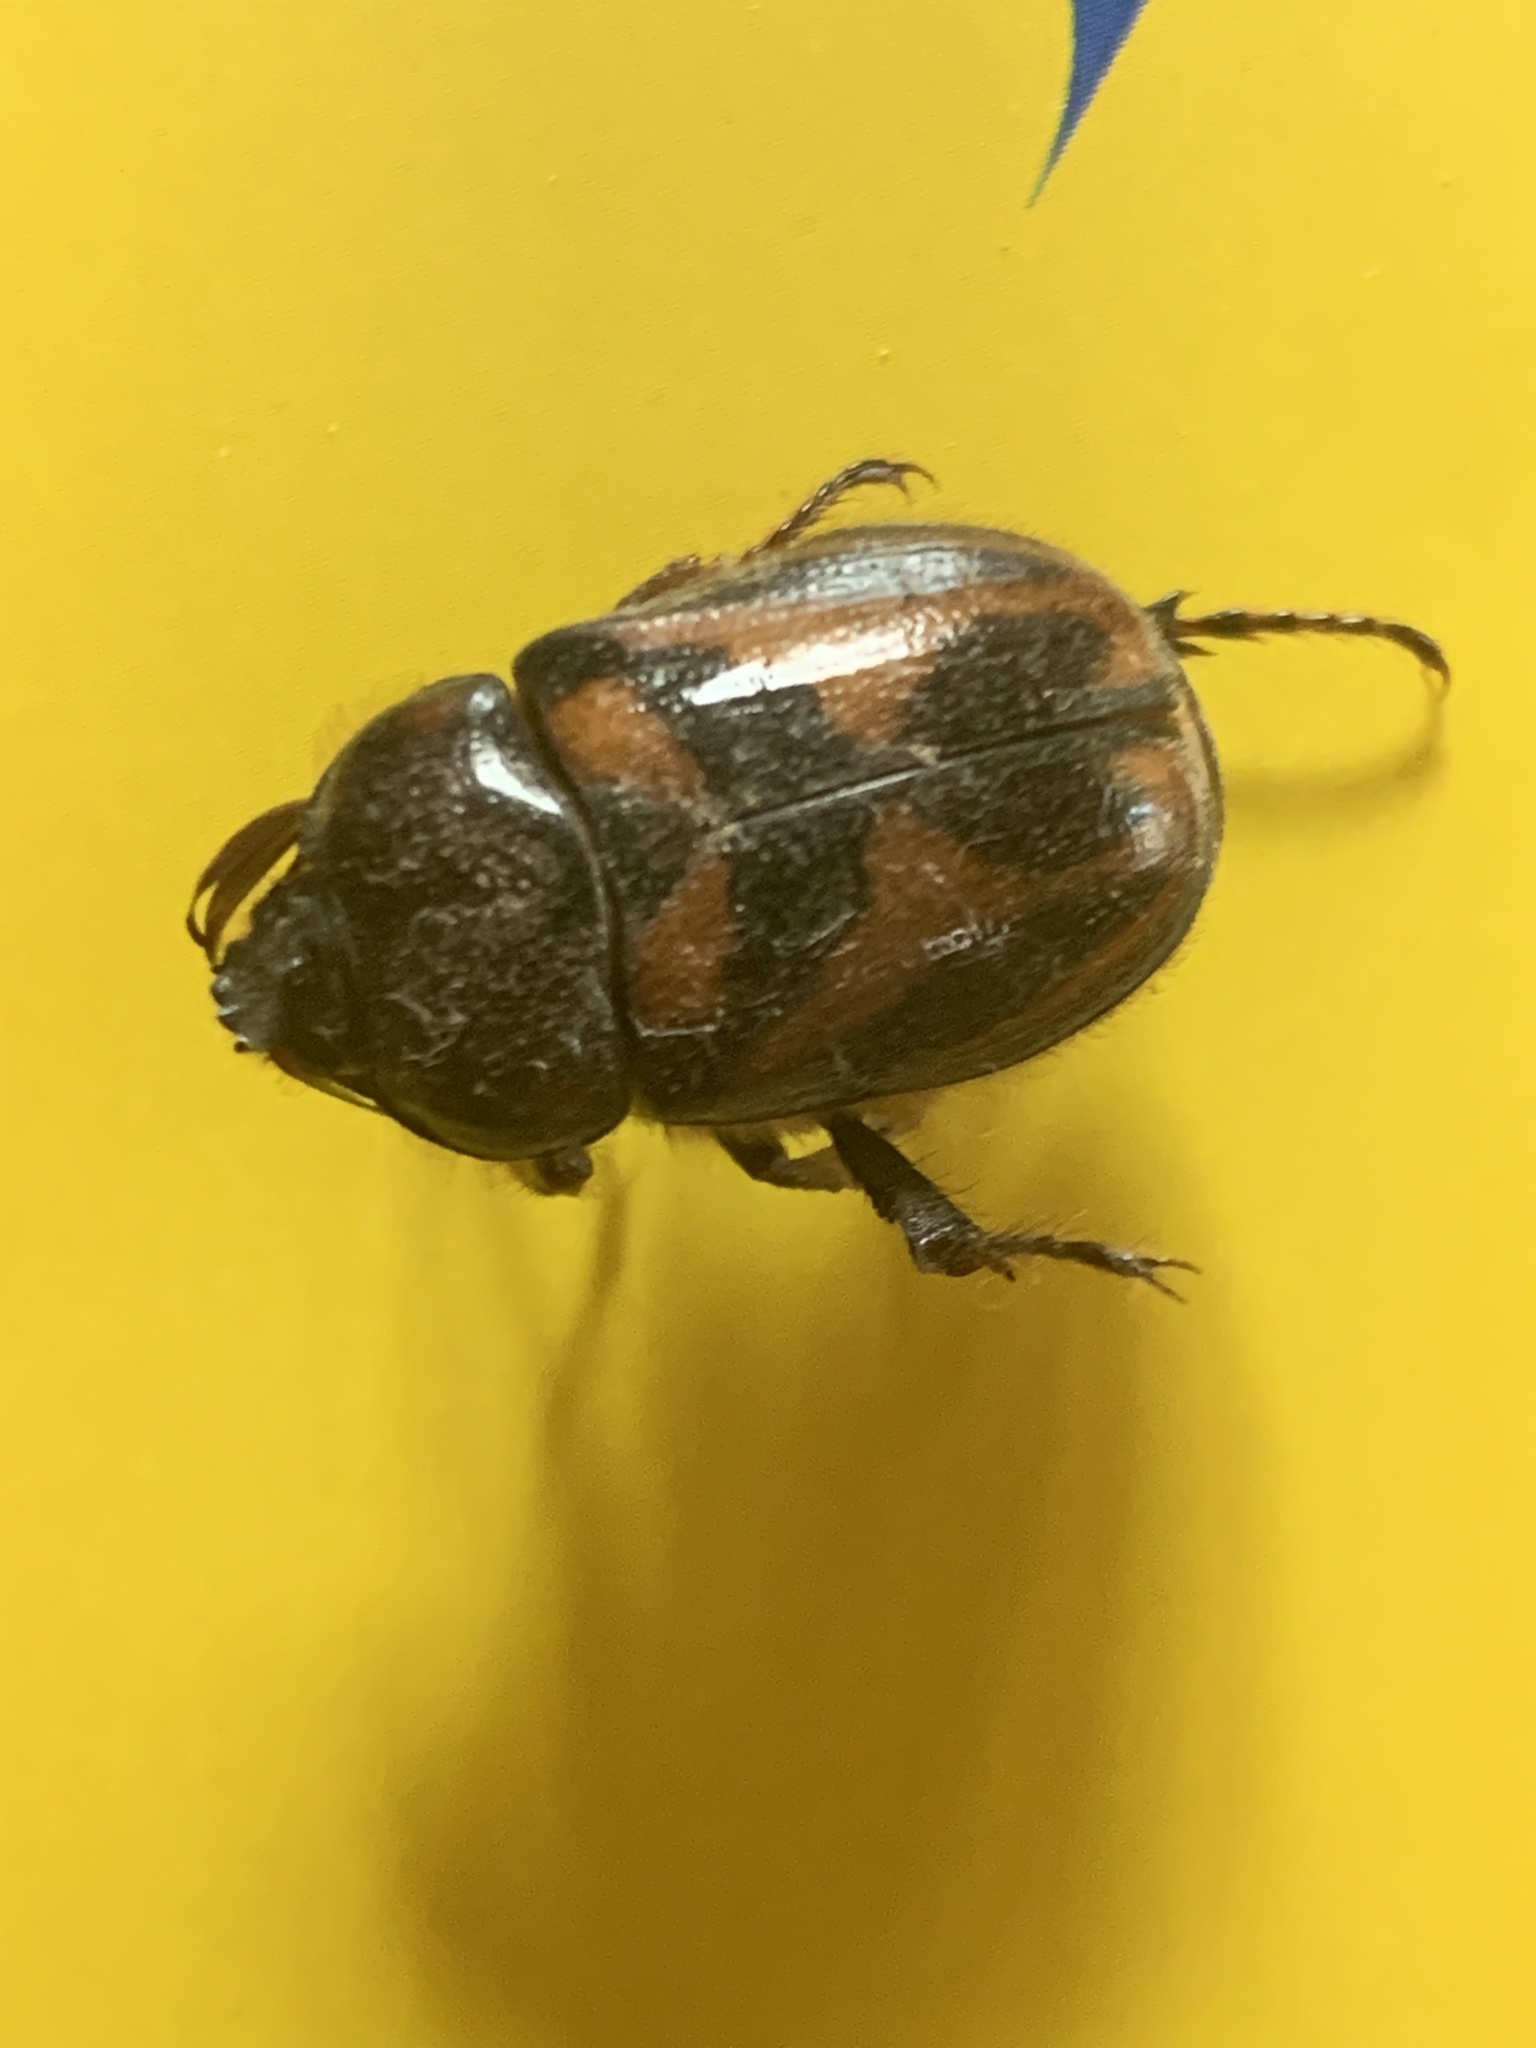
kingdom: Animalia
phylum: Arthropoda
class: Insecta
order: Coleoptera
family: Scarabaeidae
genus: Oryctomorphus
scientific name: Oryctomorphus bimaculatus
